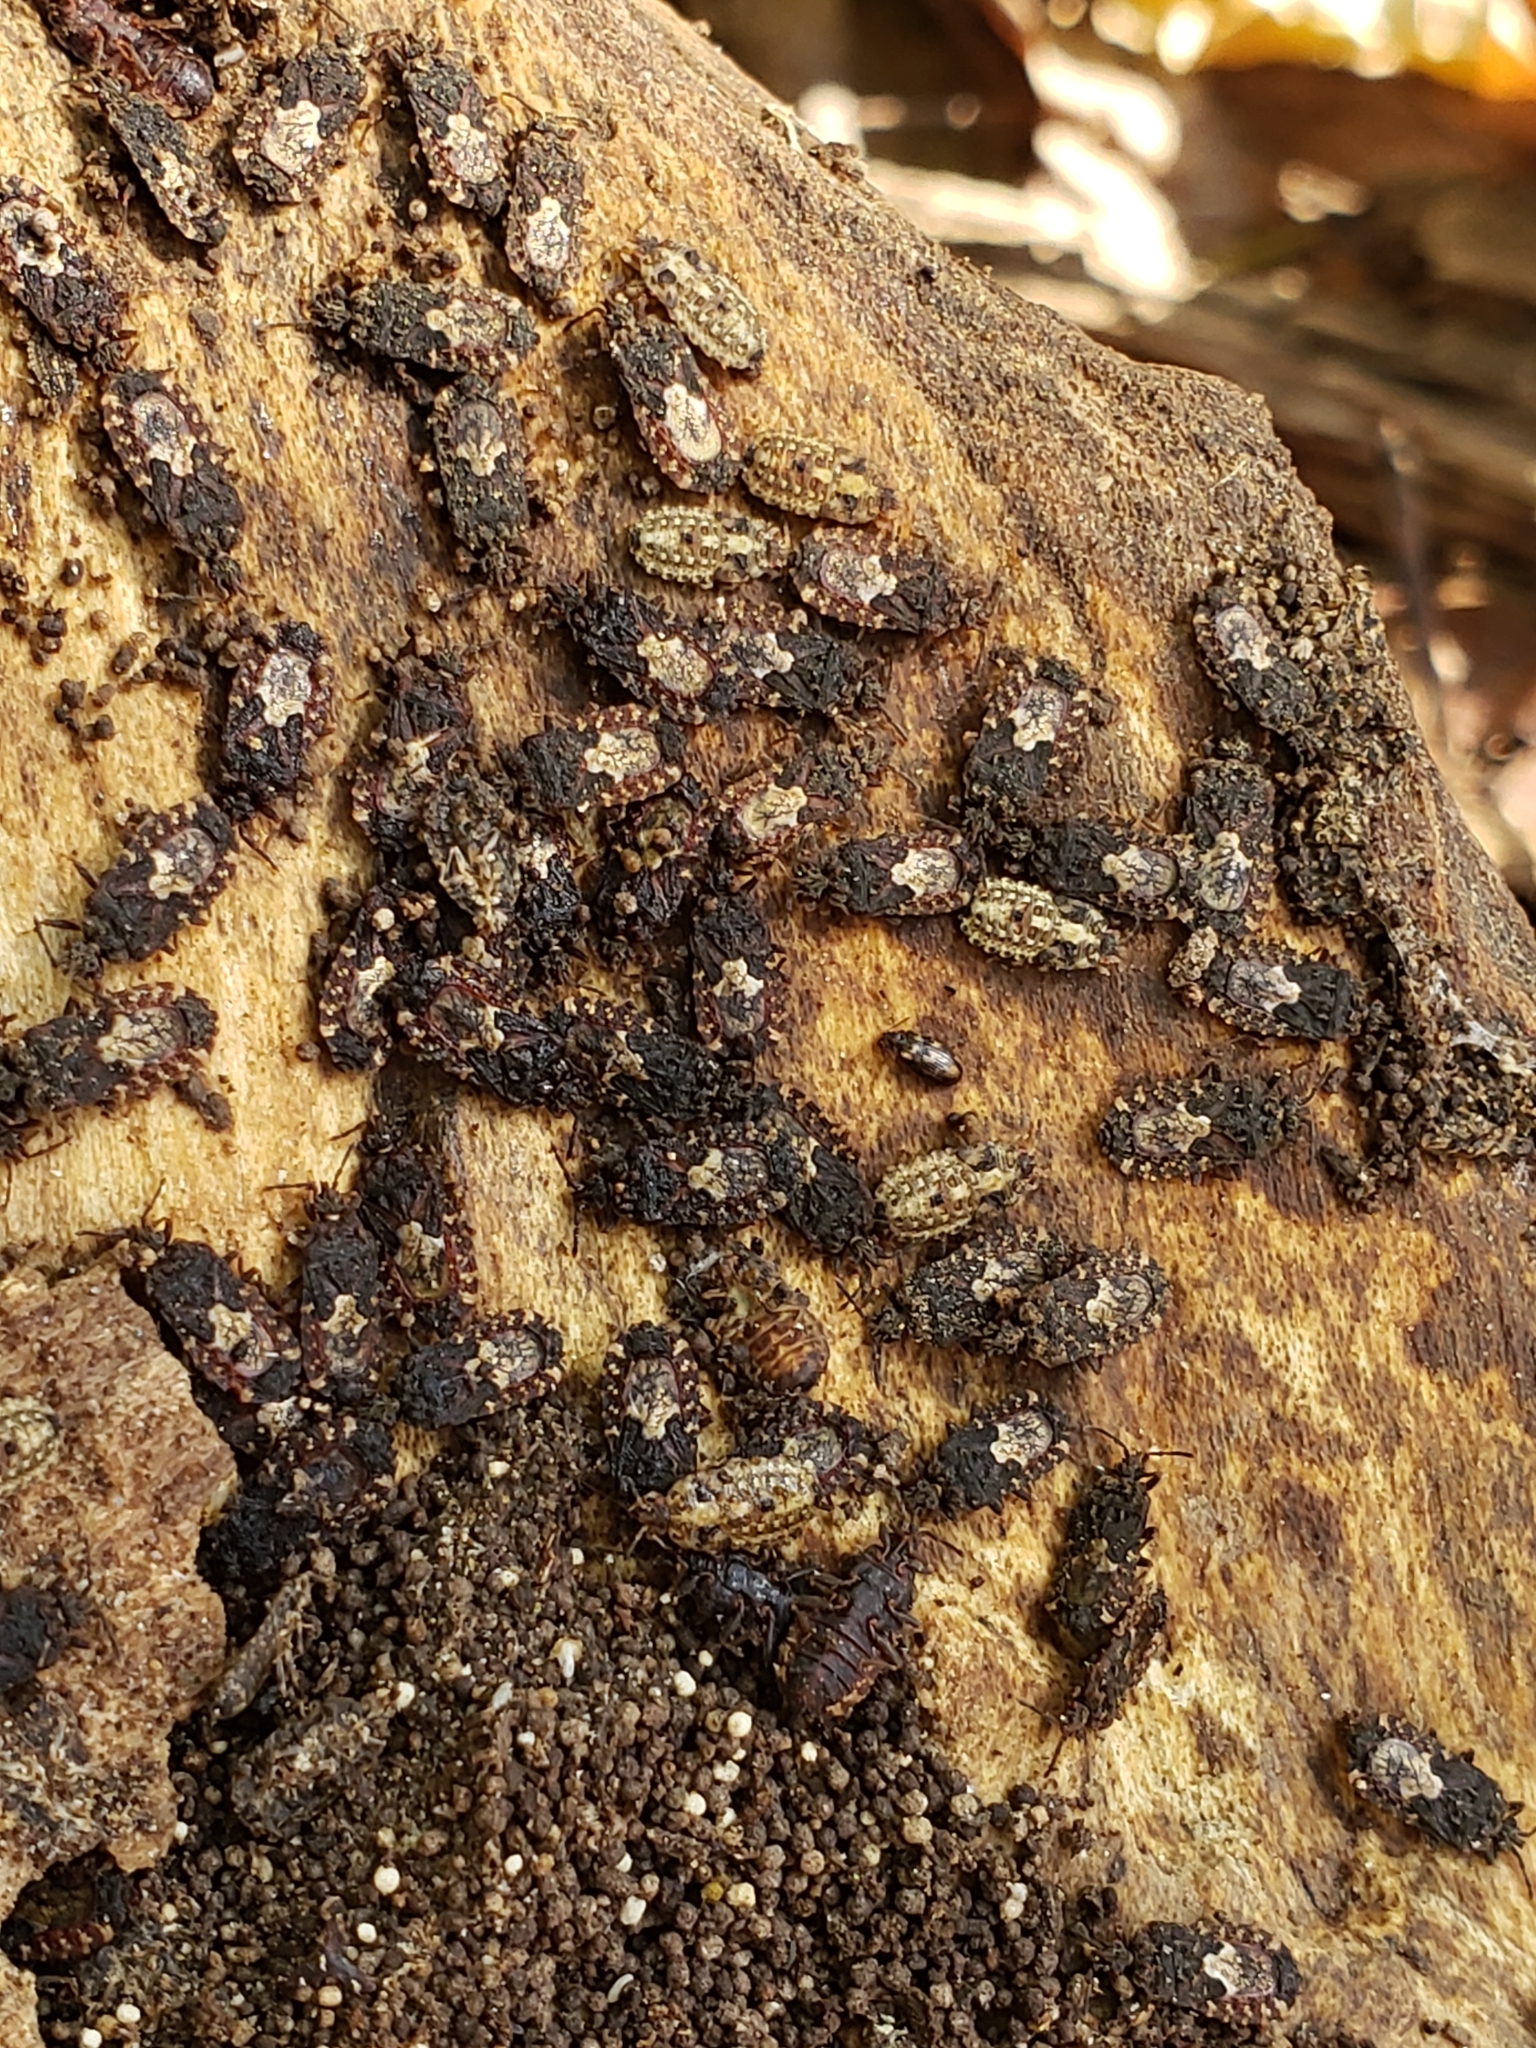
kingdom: Animalia
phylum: Arthropoda
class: Insecta
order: Hemiptera
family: Aradidae
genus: Mezira
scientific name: Mezira
